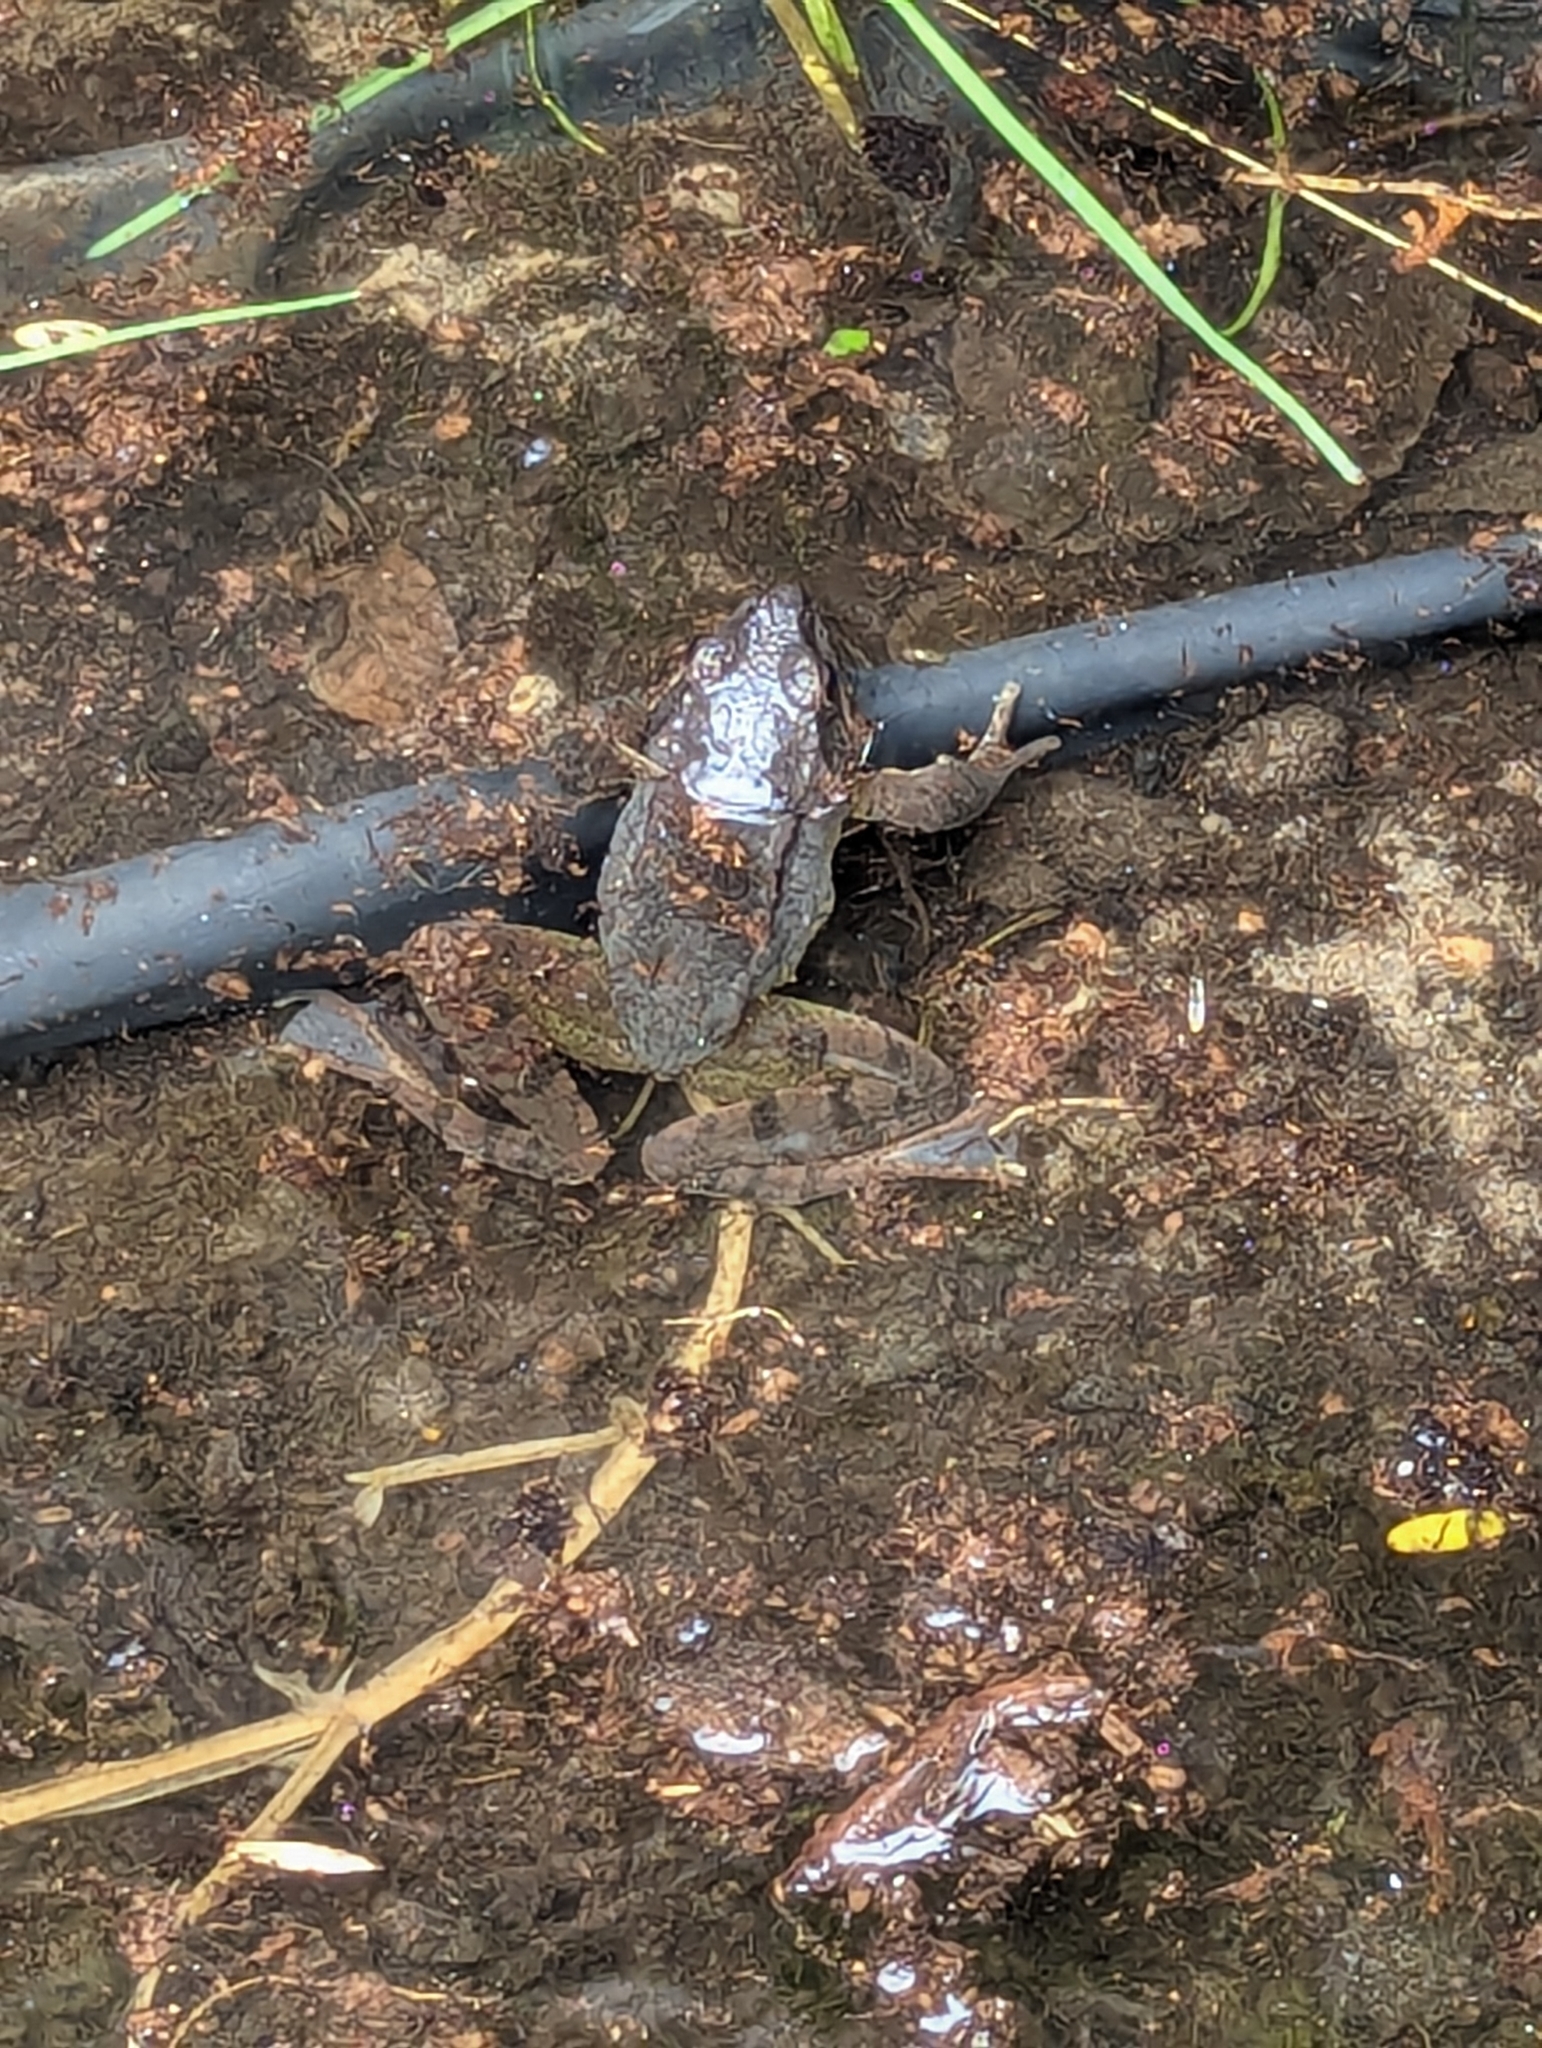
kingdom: Animalia
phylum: Chordata
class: Amphibia
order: Anura
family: Ranidae
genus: Rana
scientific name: Rana dalmatina
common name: Agile frog
